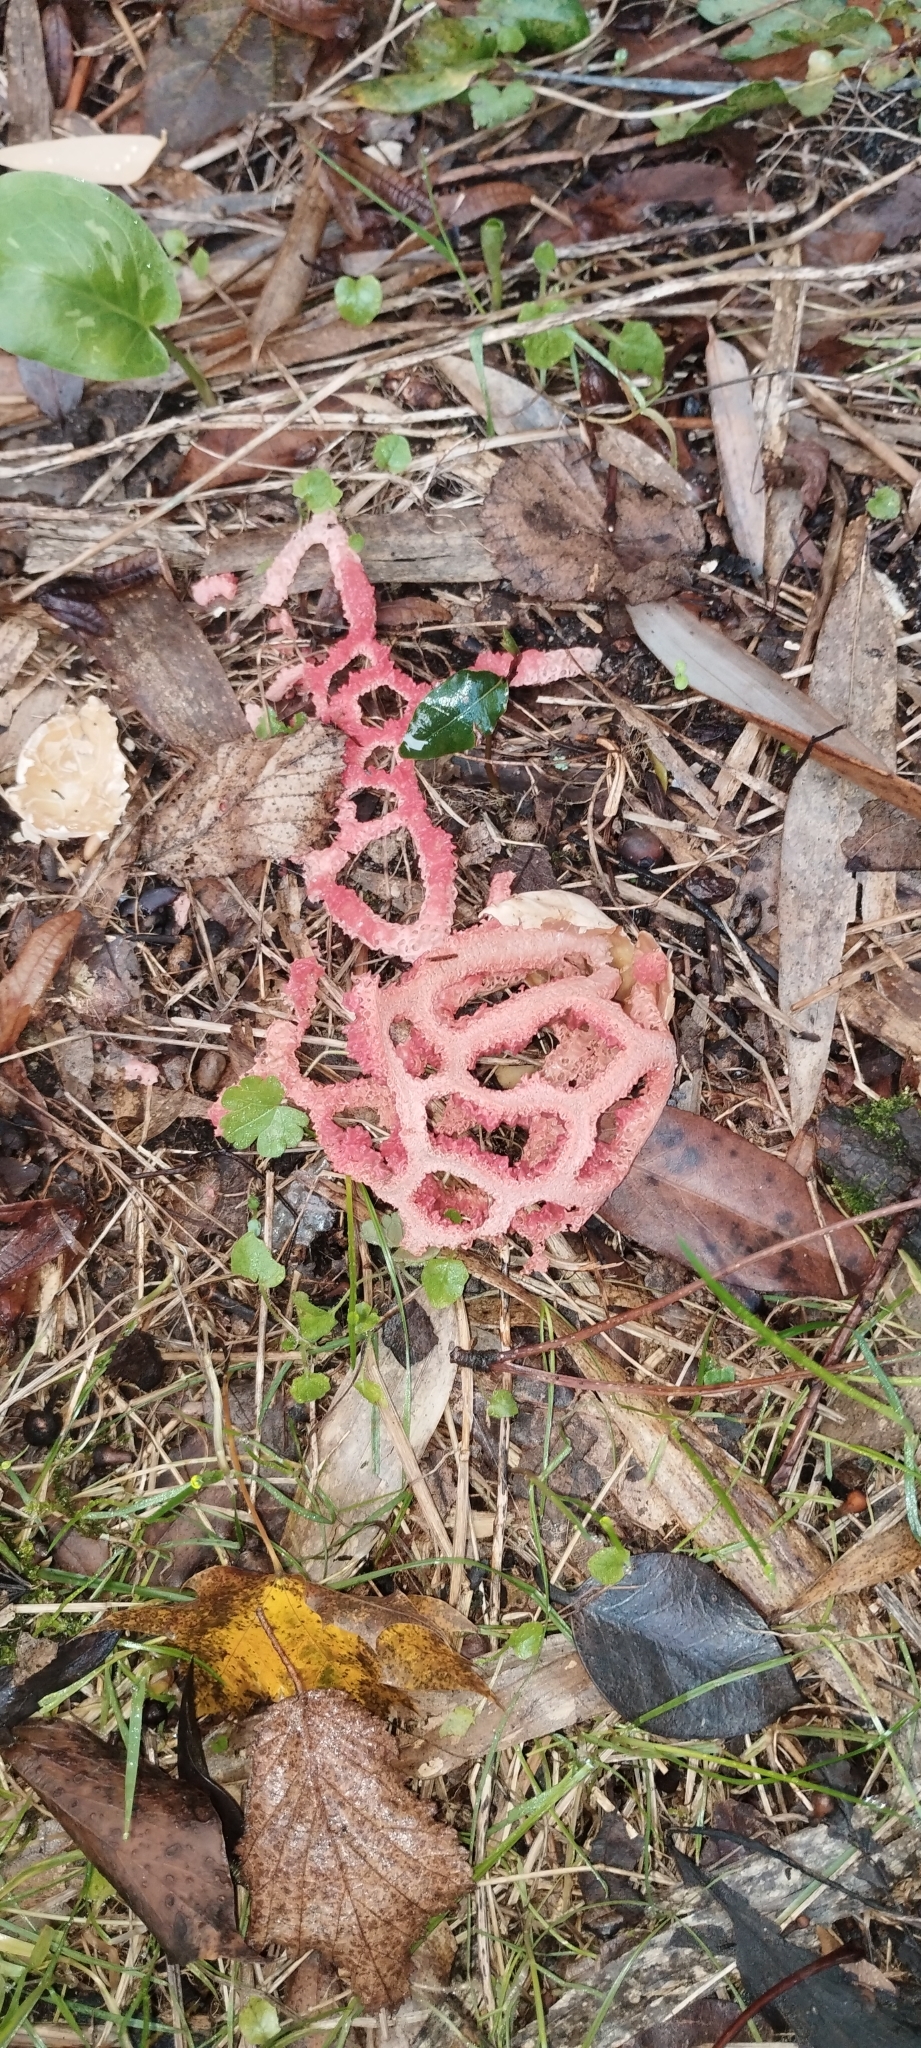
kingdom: Fungi
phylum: Basidiomycota
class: Agaricomycetes
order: Phallales
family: Phallaceae
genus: Clathrus
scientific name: Clathrus ruber
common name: Red cage
